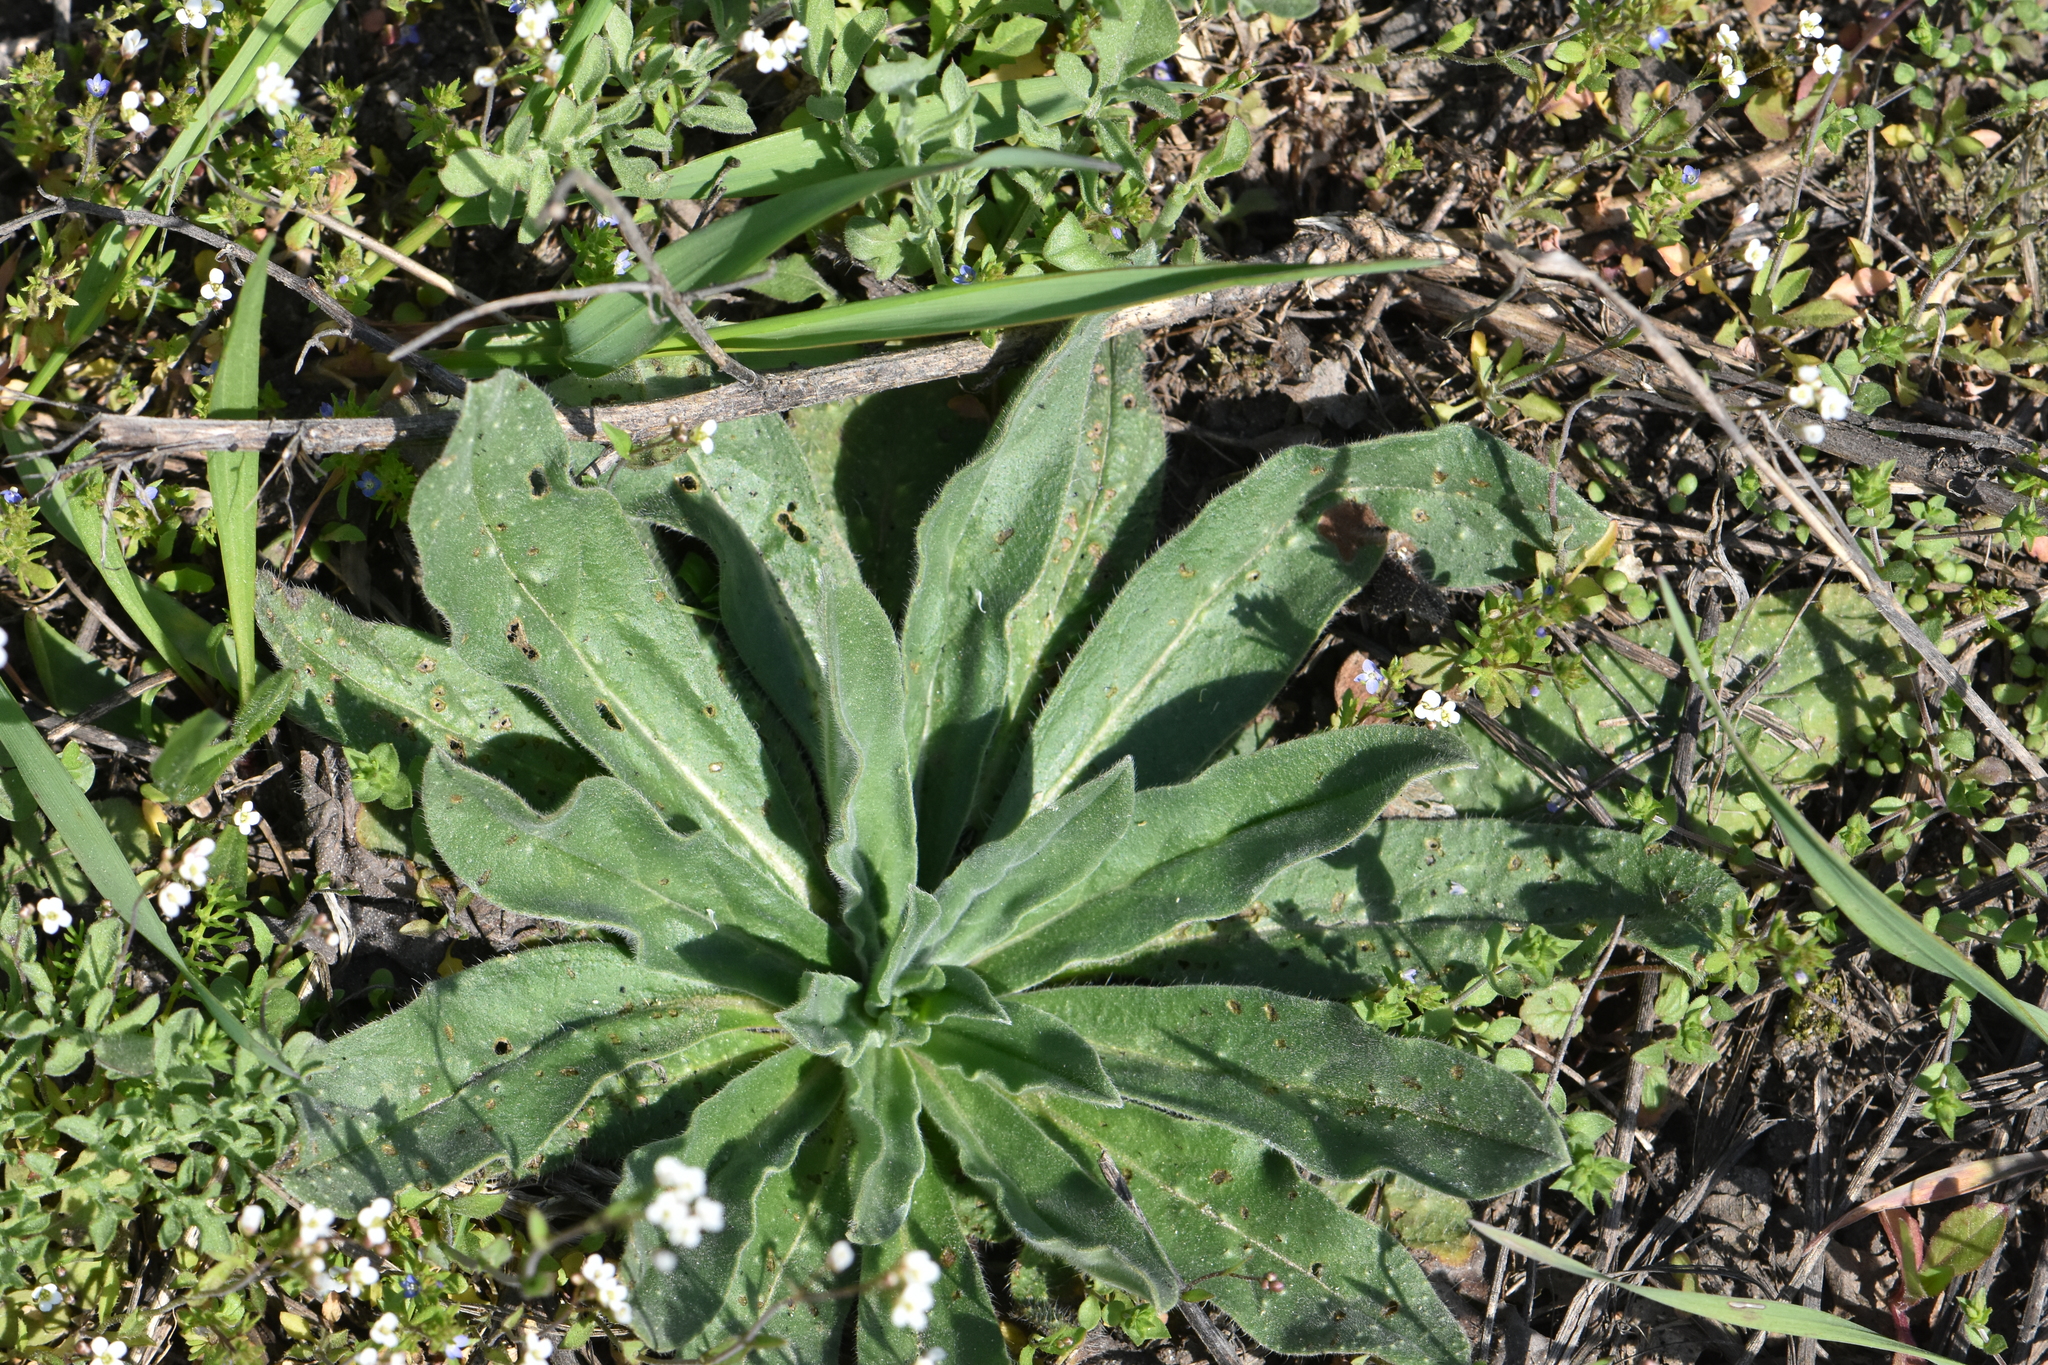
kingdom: Plantae
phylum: Tracheophyta
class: Magnoliopsida
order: Boraginales
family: Boraginaceae
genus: Echium
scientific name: Echium vulgare
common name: Common viper's bugloss
